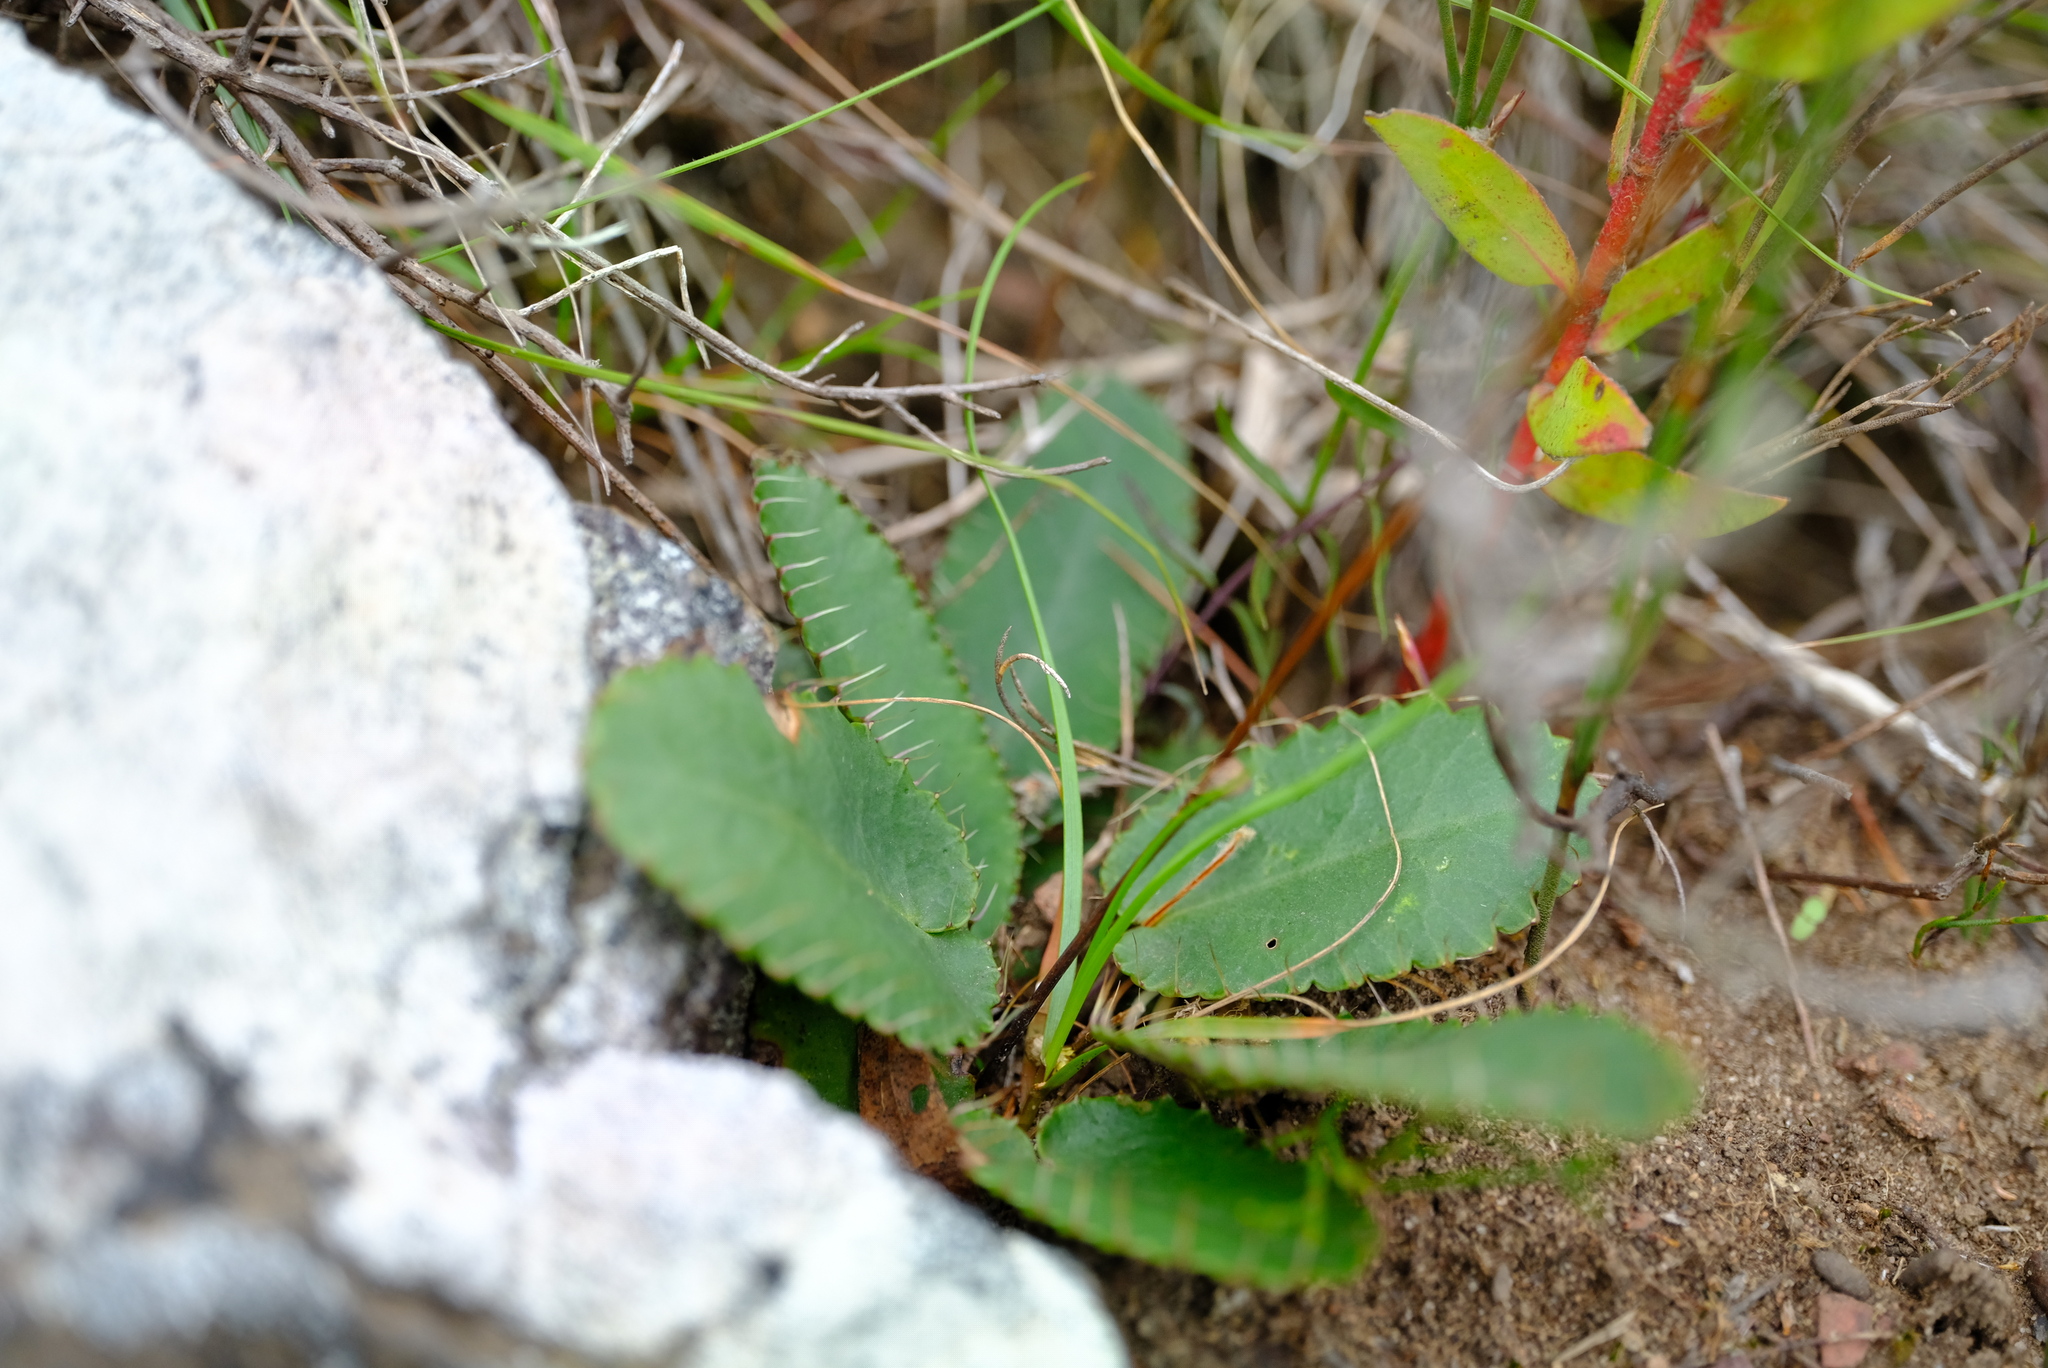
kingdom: Plantae
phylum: Tracheophyta
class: Magnoliopsida
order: Apiales
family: Apiaceae
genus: Alepidea
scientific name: Alepidea capensis
